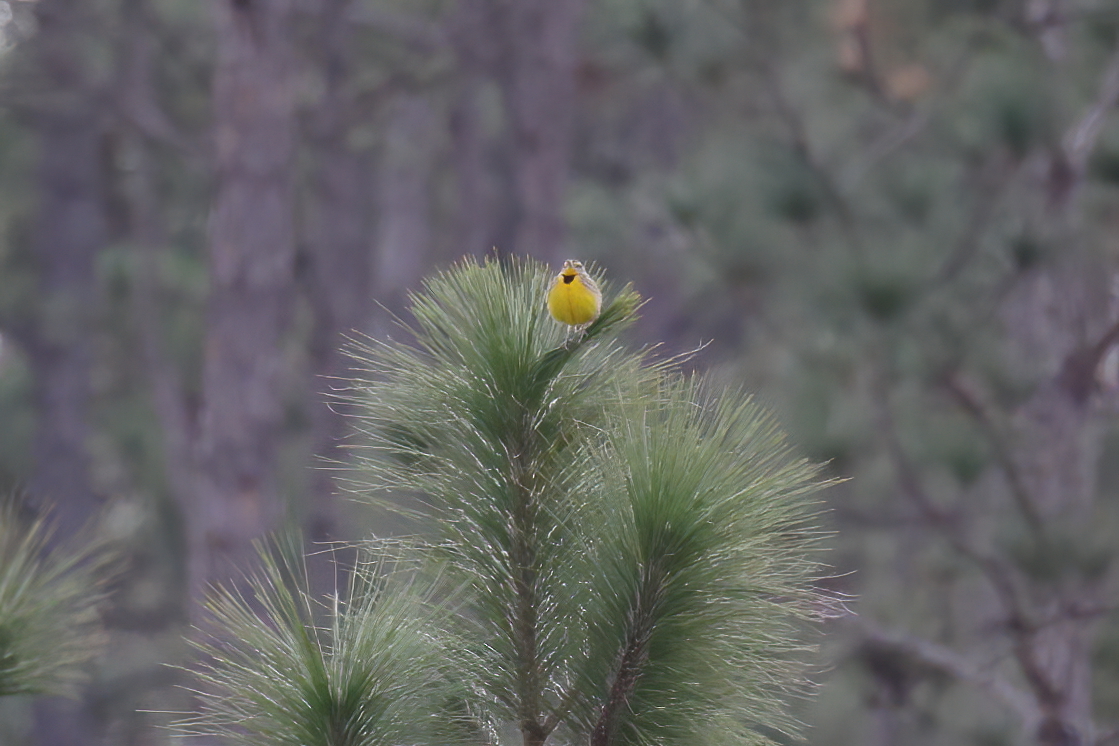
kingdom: Animalia
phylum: Chordata
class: Aves
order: Passeriformes
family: Icteridae
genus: Sturnella
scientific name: Sturnella magna
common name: Eastern meadowlark
